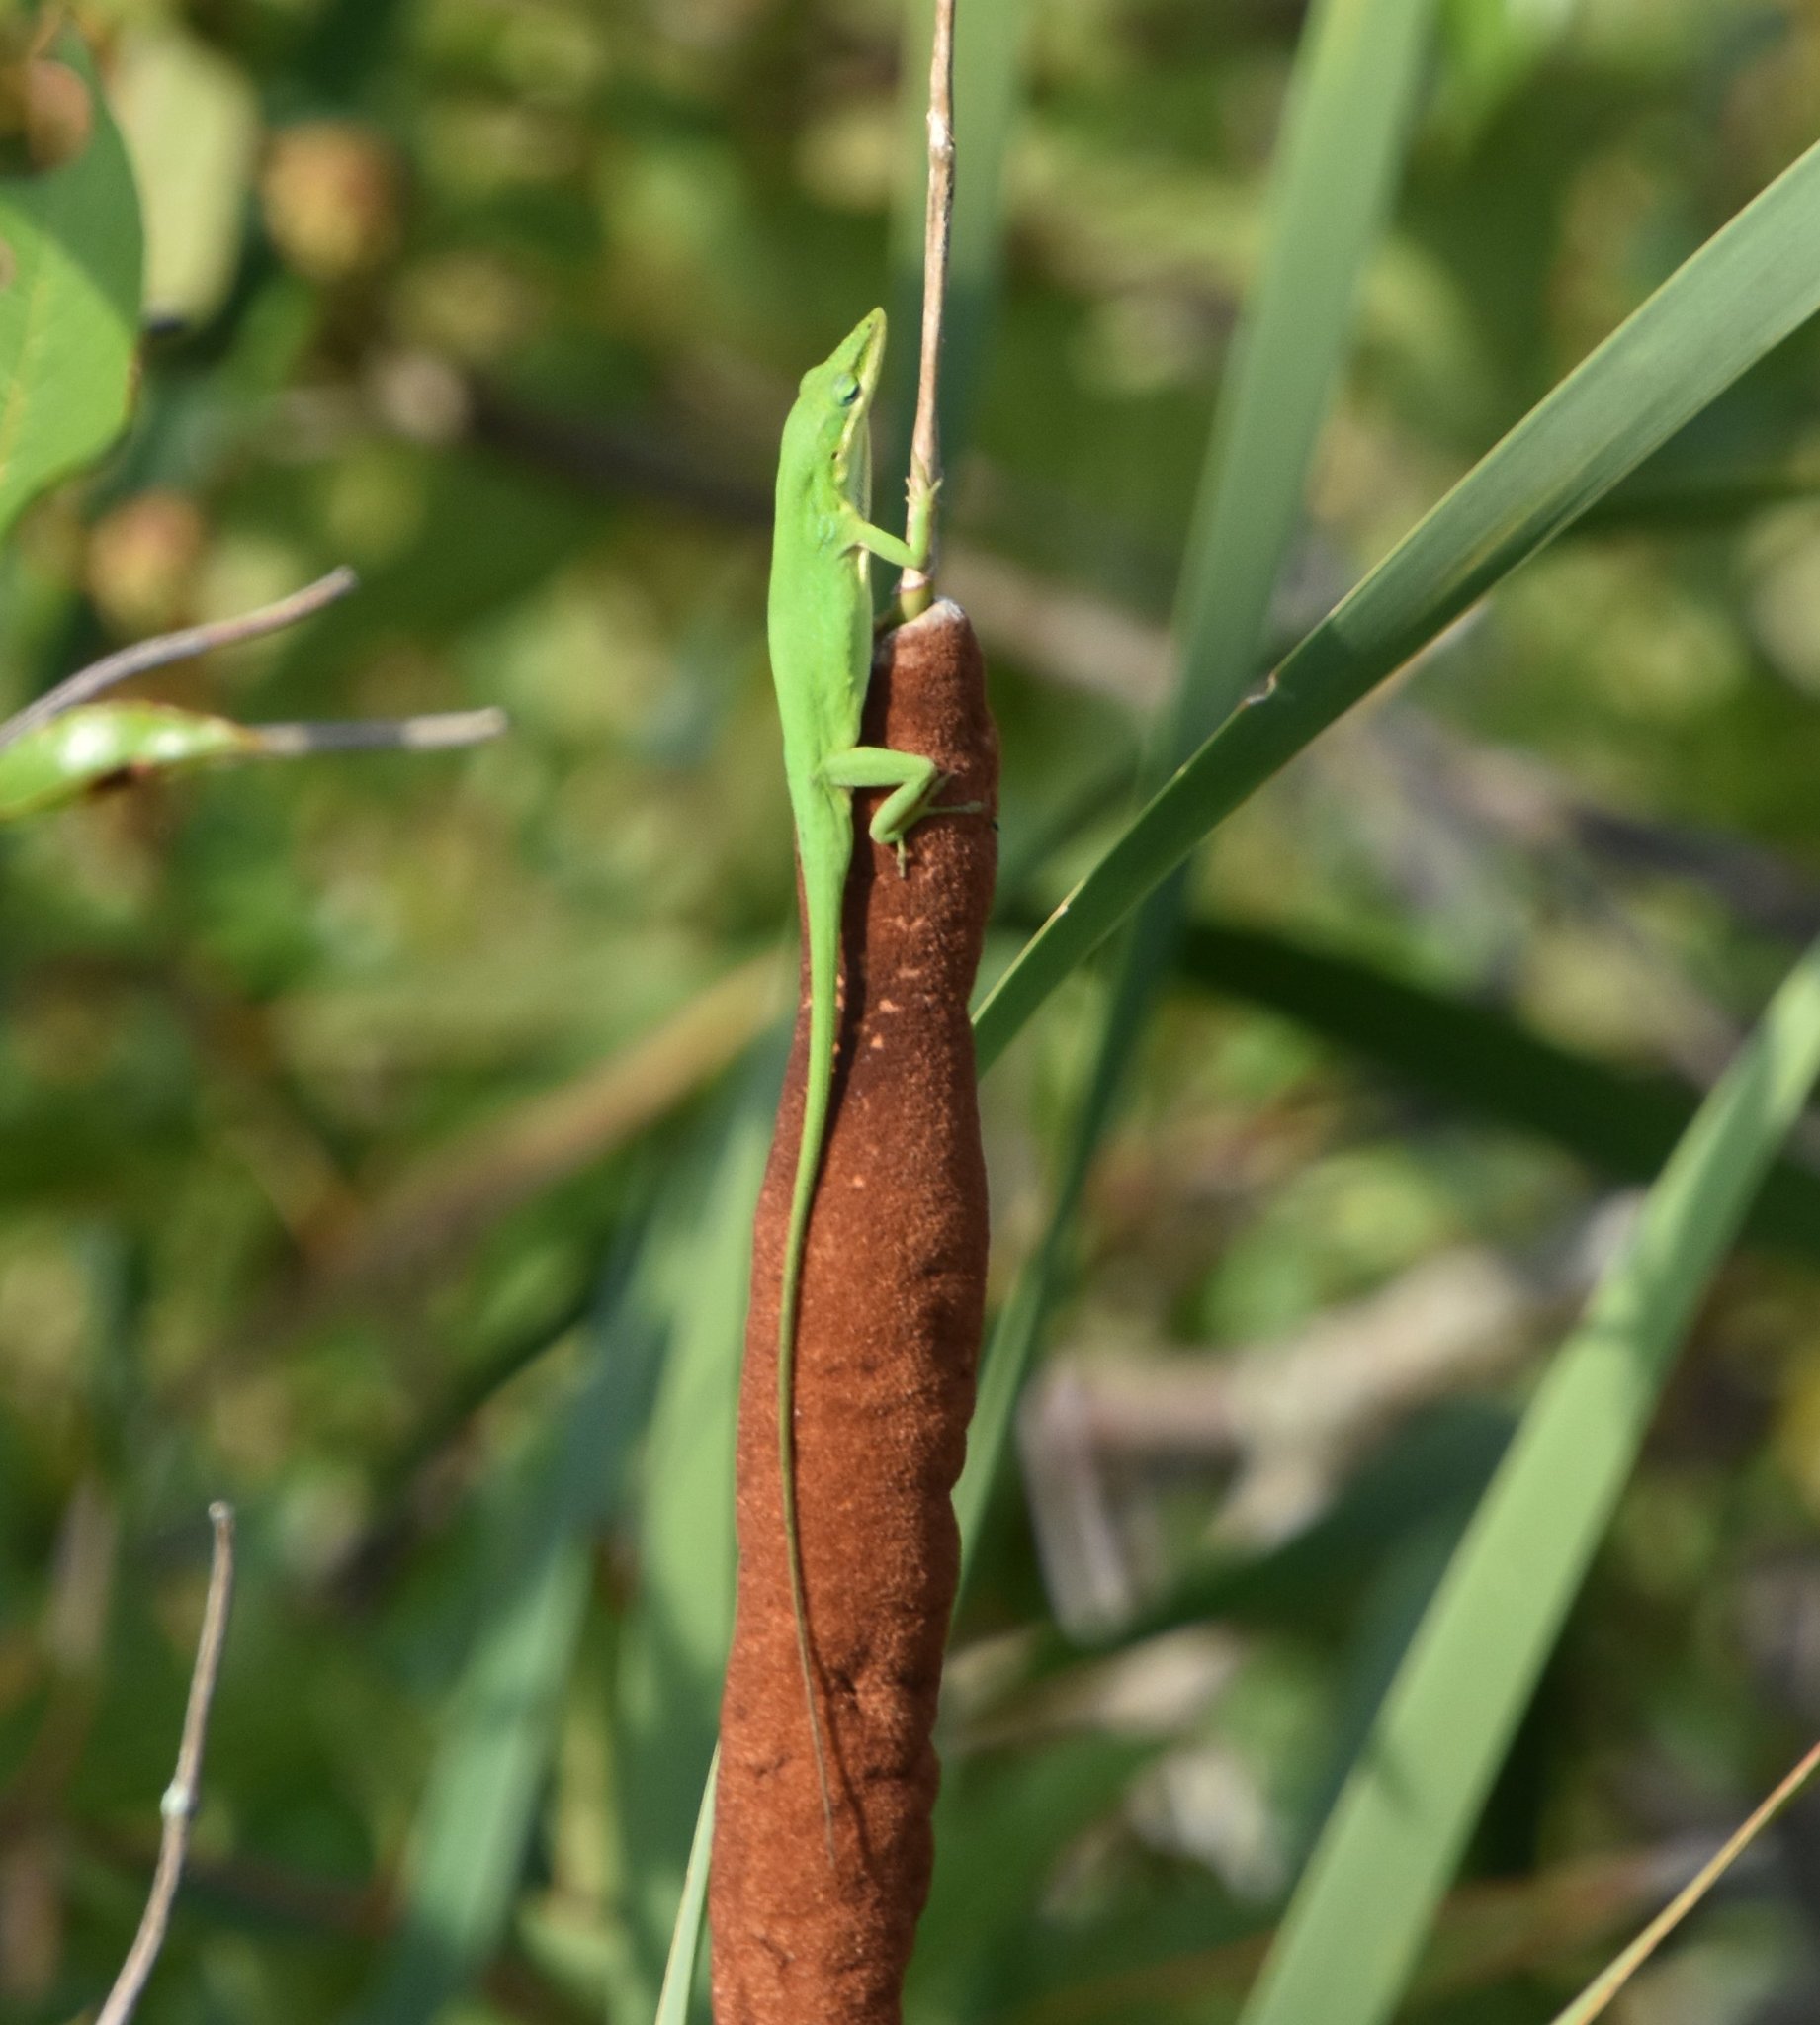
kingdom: Animalia
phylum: Chordata
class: Squamata
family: Dactyloidae
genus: Anolis
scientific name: Anolis carolinensis
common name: Green anole
